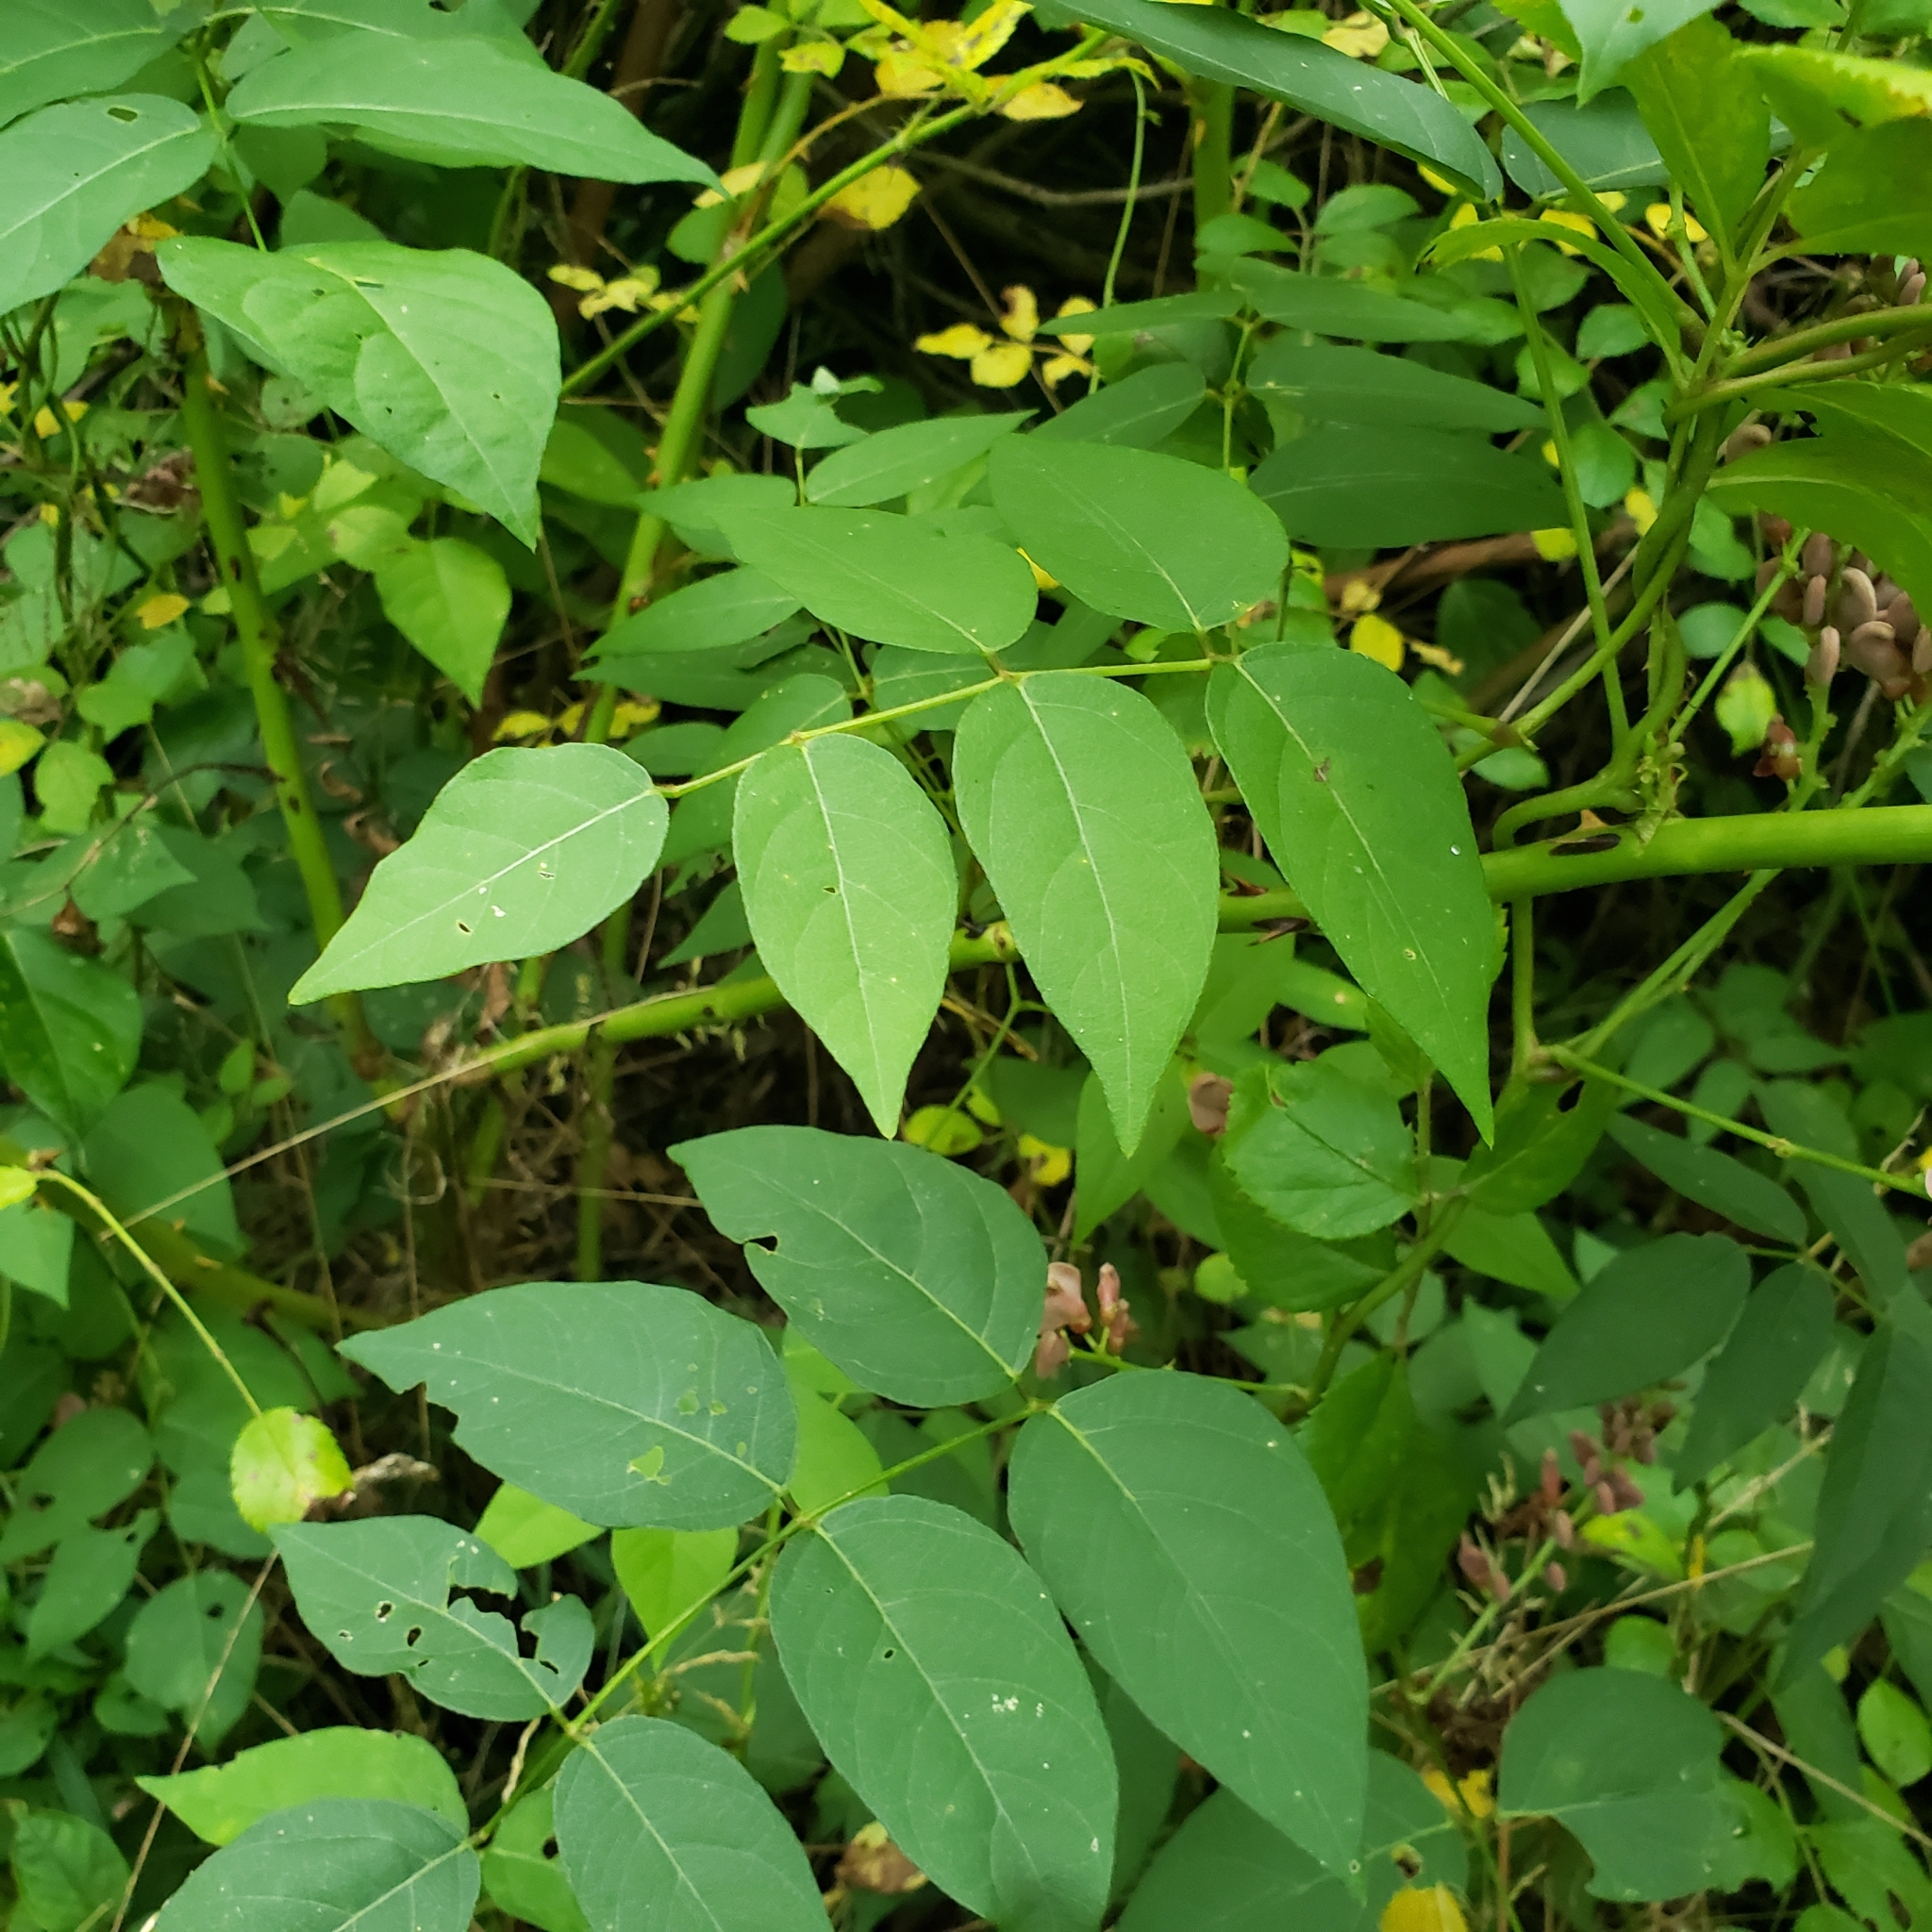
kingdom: Plantae
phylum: Tracheophyta
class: Magnoliopsida
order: Fabales
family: Fabaceae
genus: Apios
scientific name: Apios americana
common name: American potato-bean
